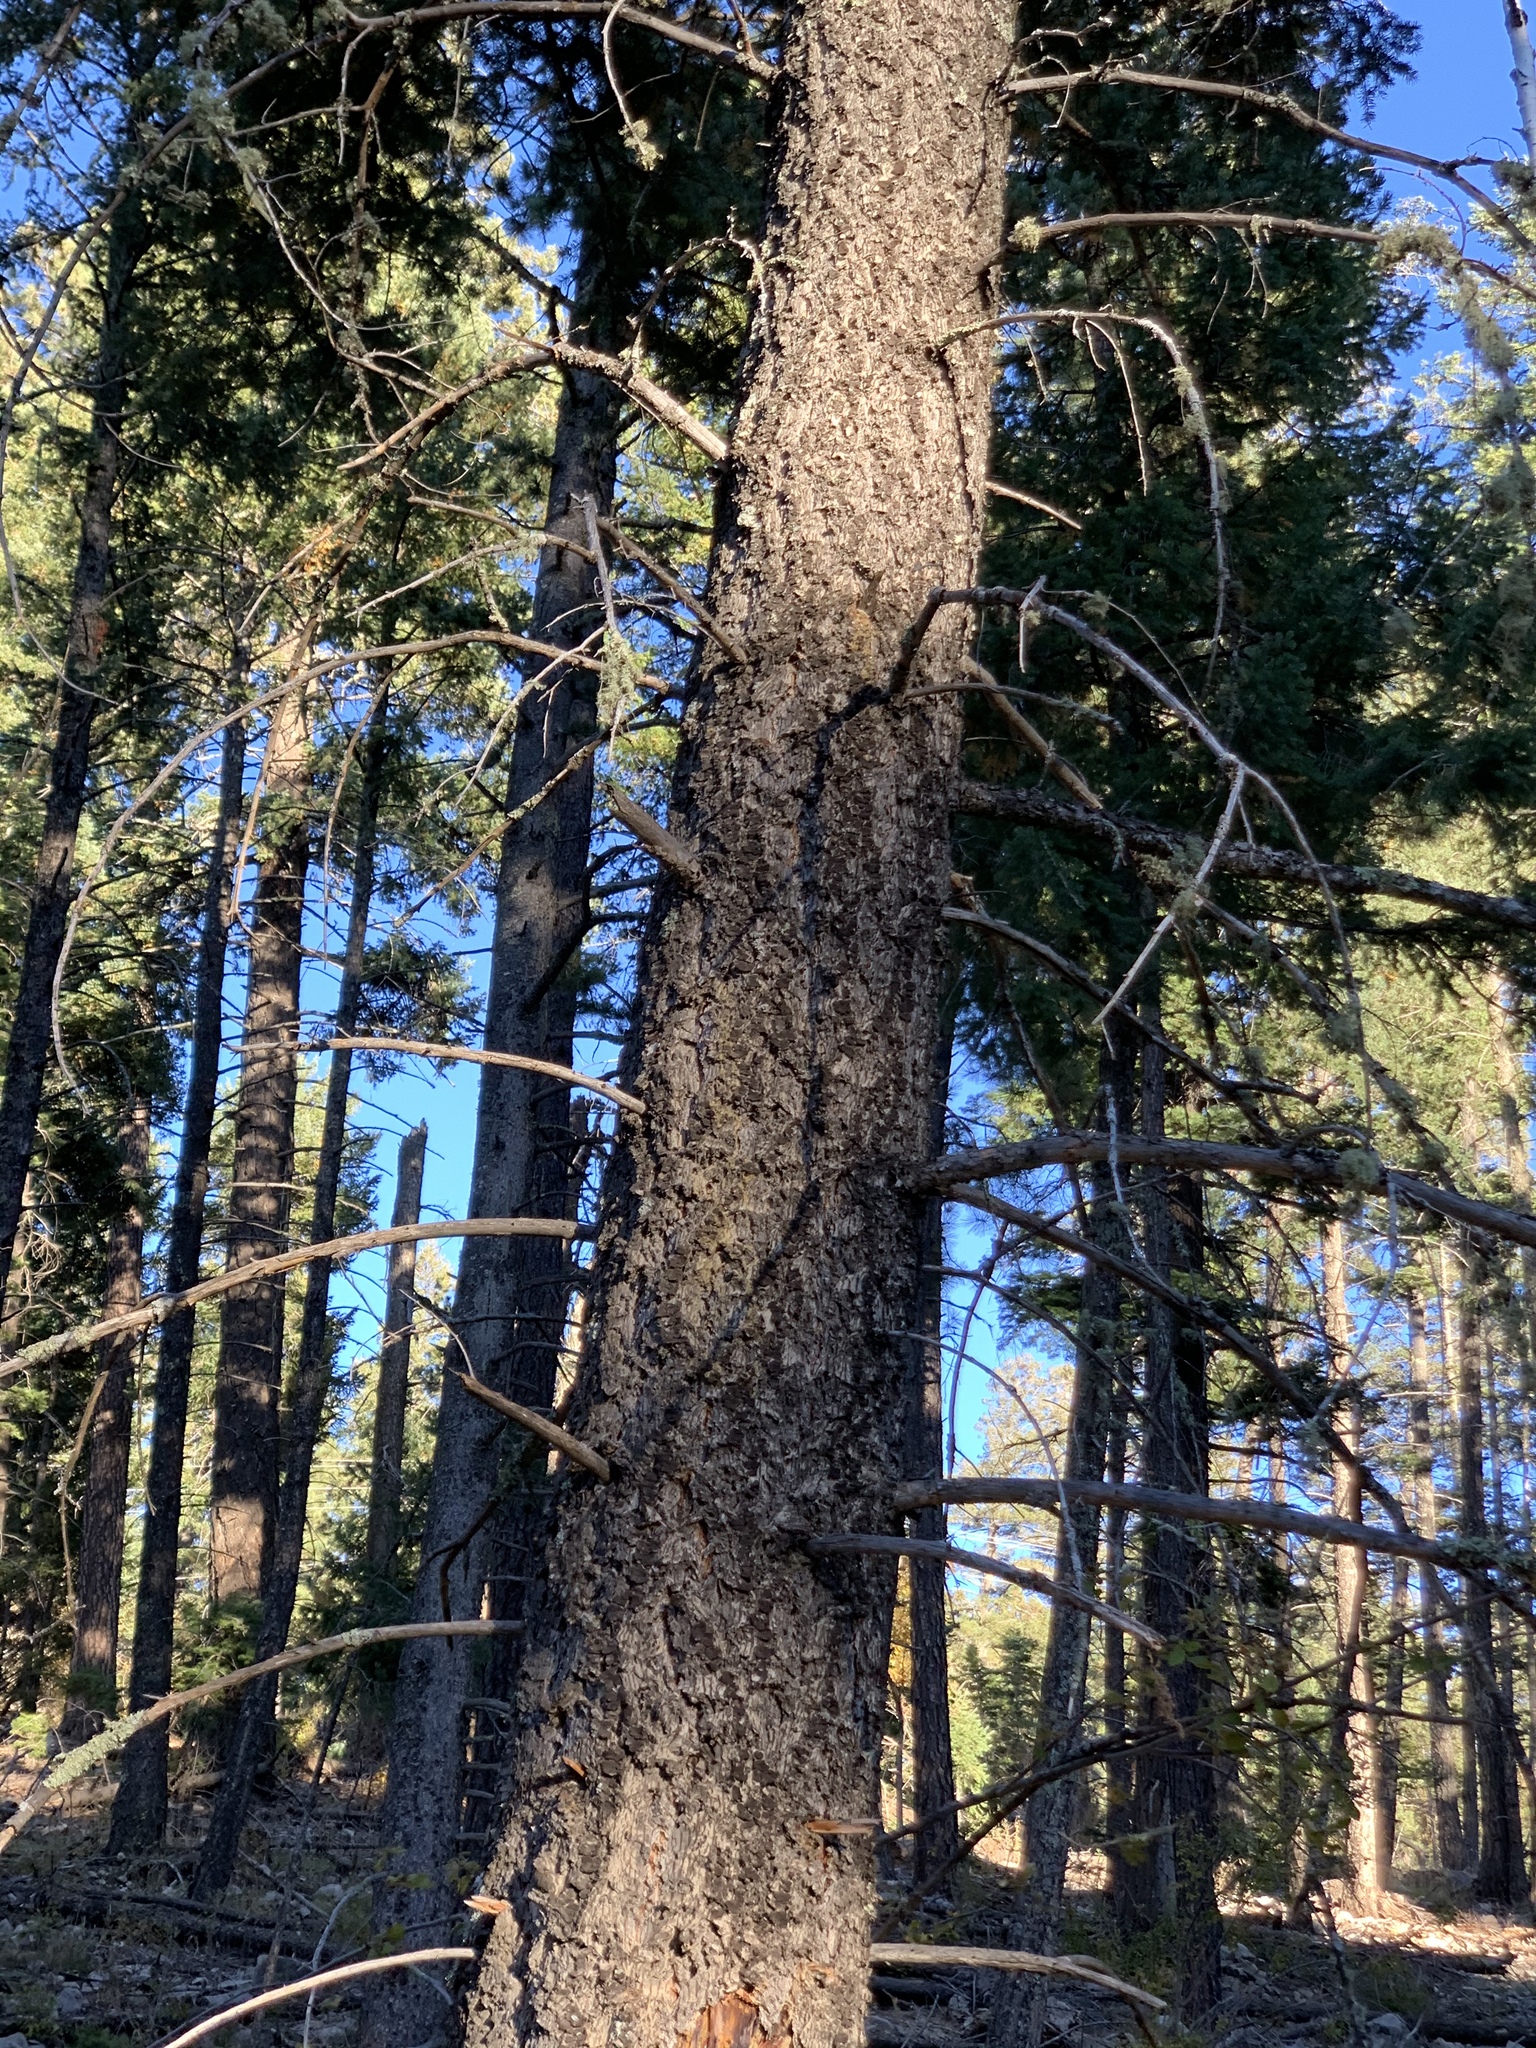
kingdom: Plantae
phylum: Tracheophyta
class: Pinopsida
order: Pinales
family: Pinaceae
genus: Pseudotsuga
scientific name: Pseudotsuga menziesii
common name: Douglas fir
